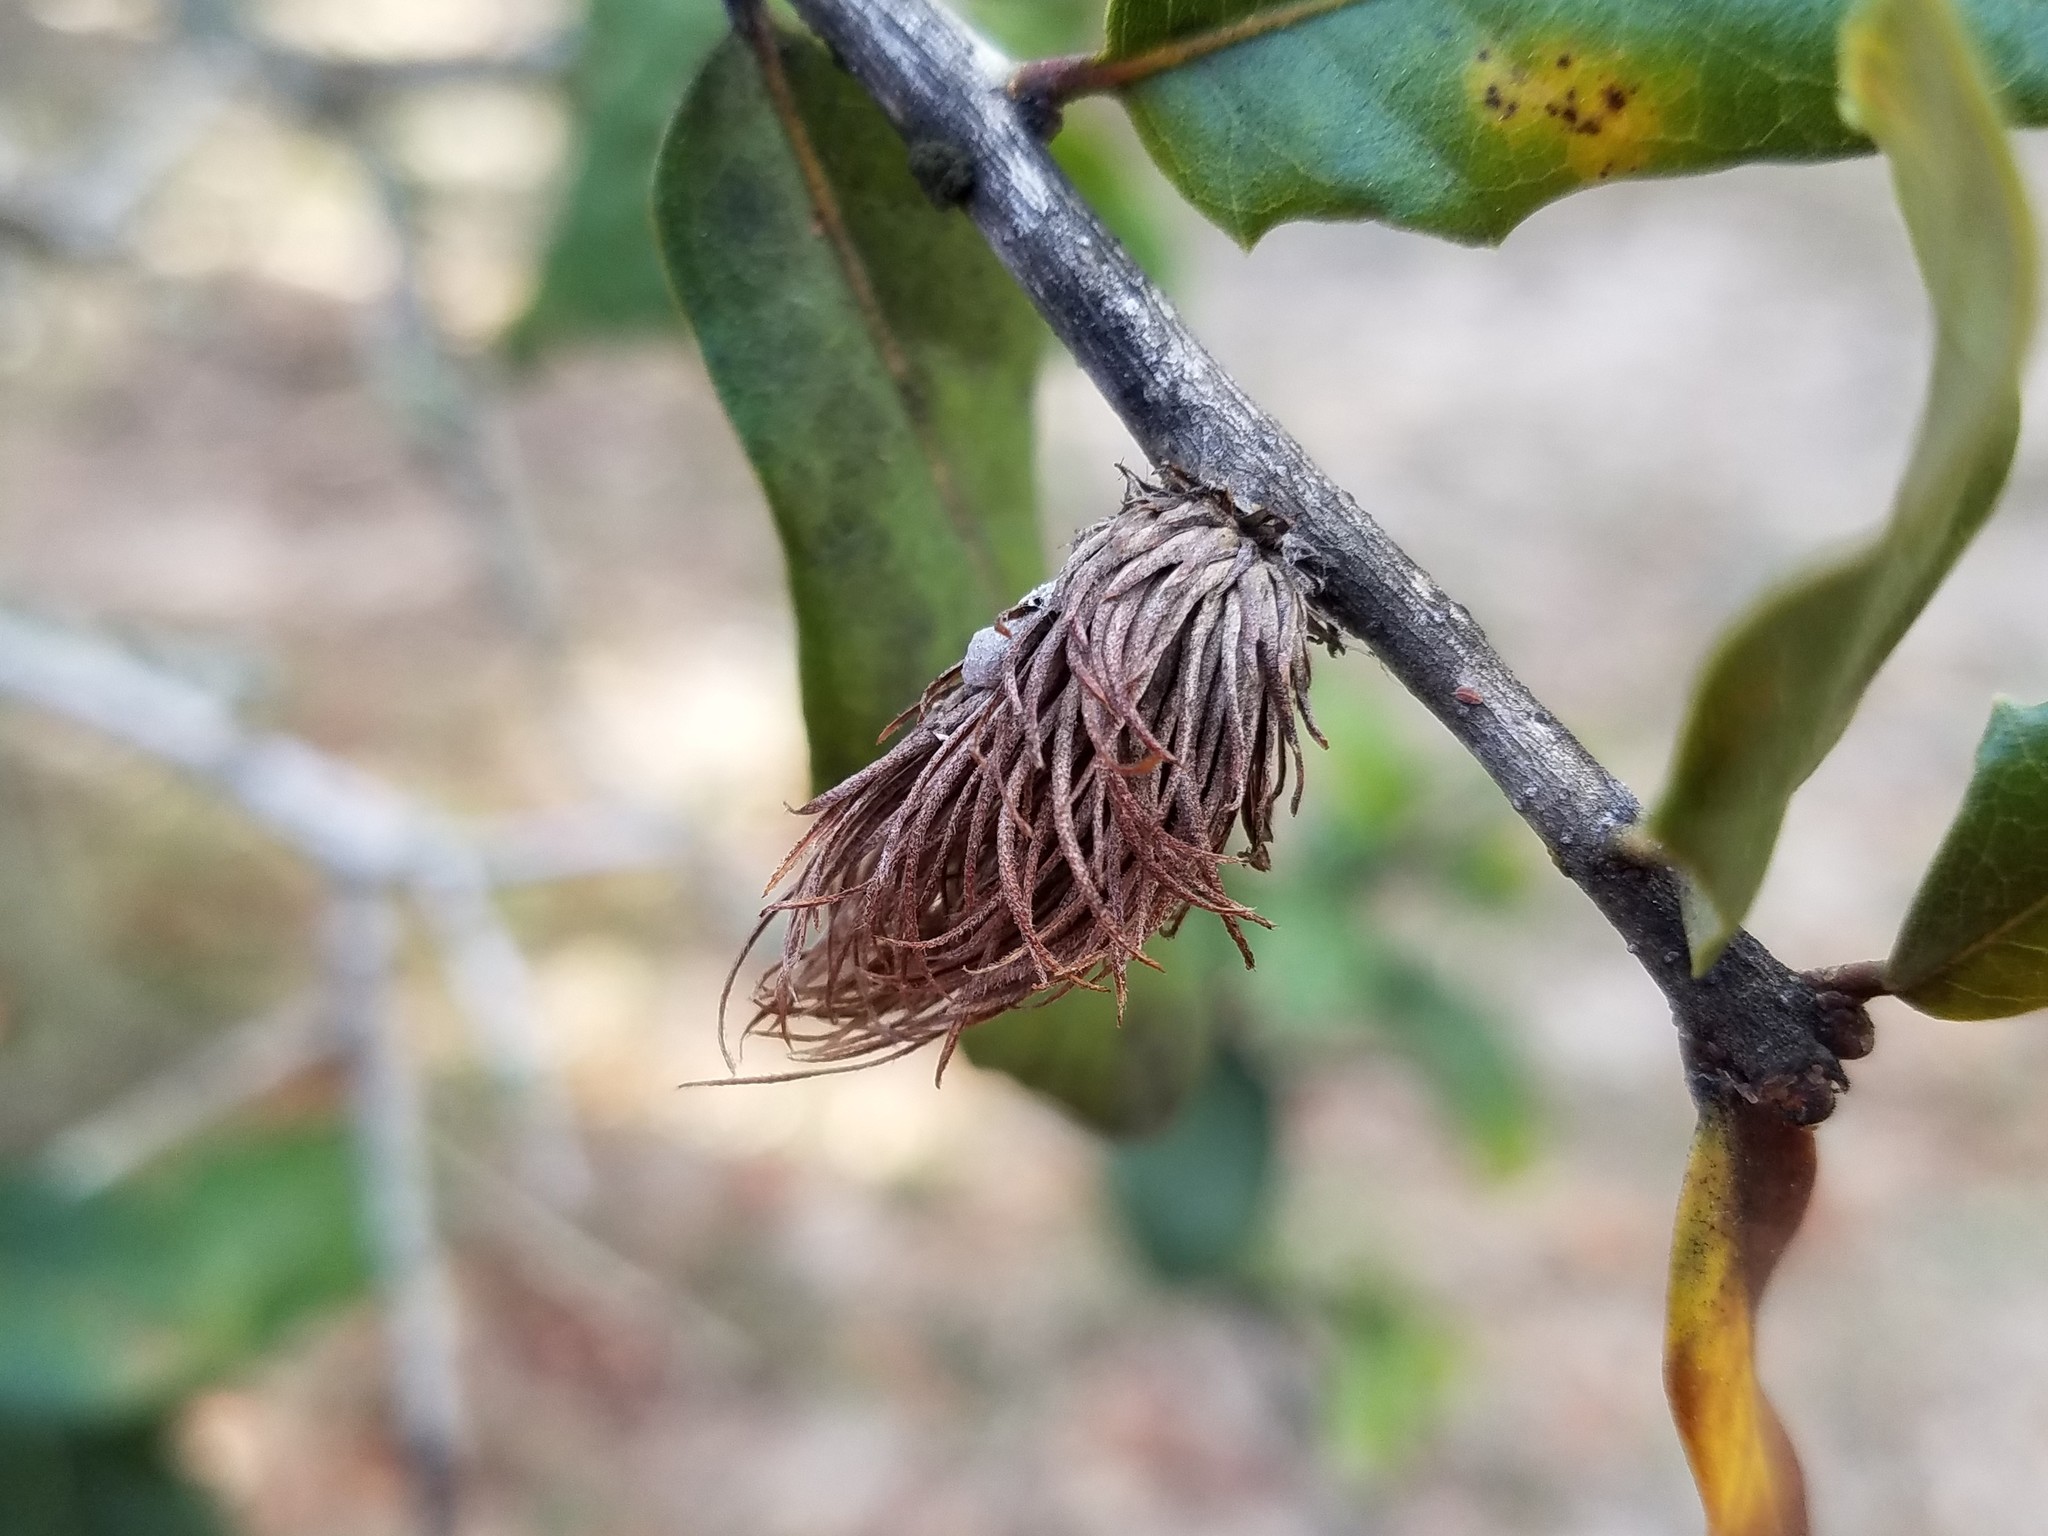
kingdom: Animalia
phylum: Arthropoda
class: Insecta
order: Hymenoptera
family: Cynipidae
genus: Andricus
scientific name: Andricus quercusfoliatus
